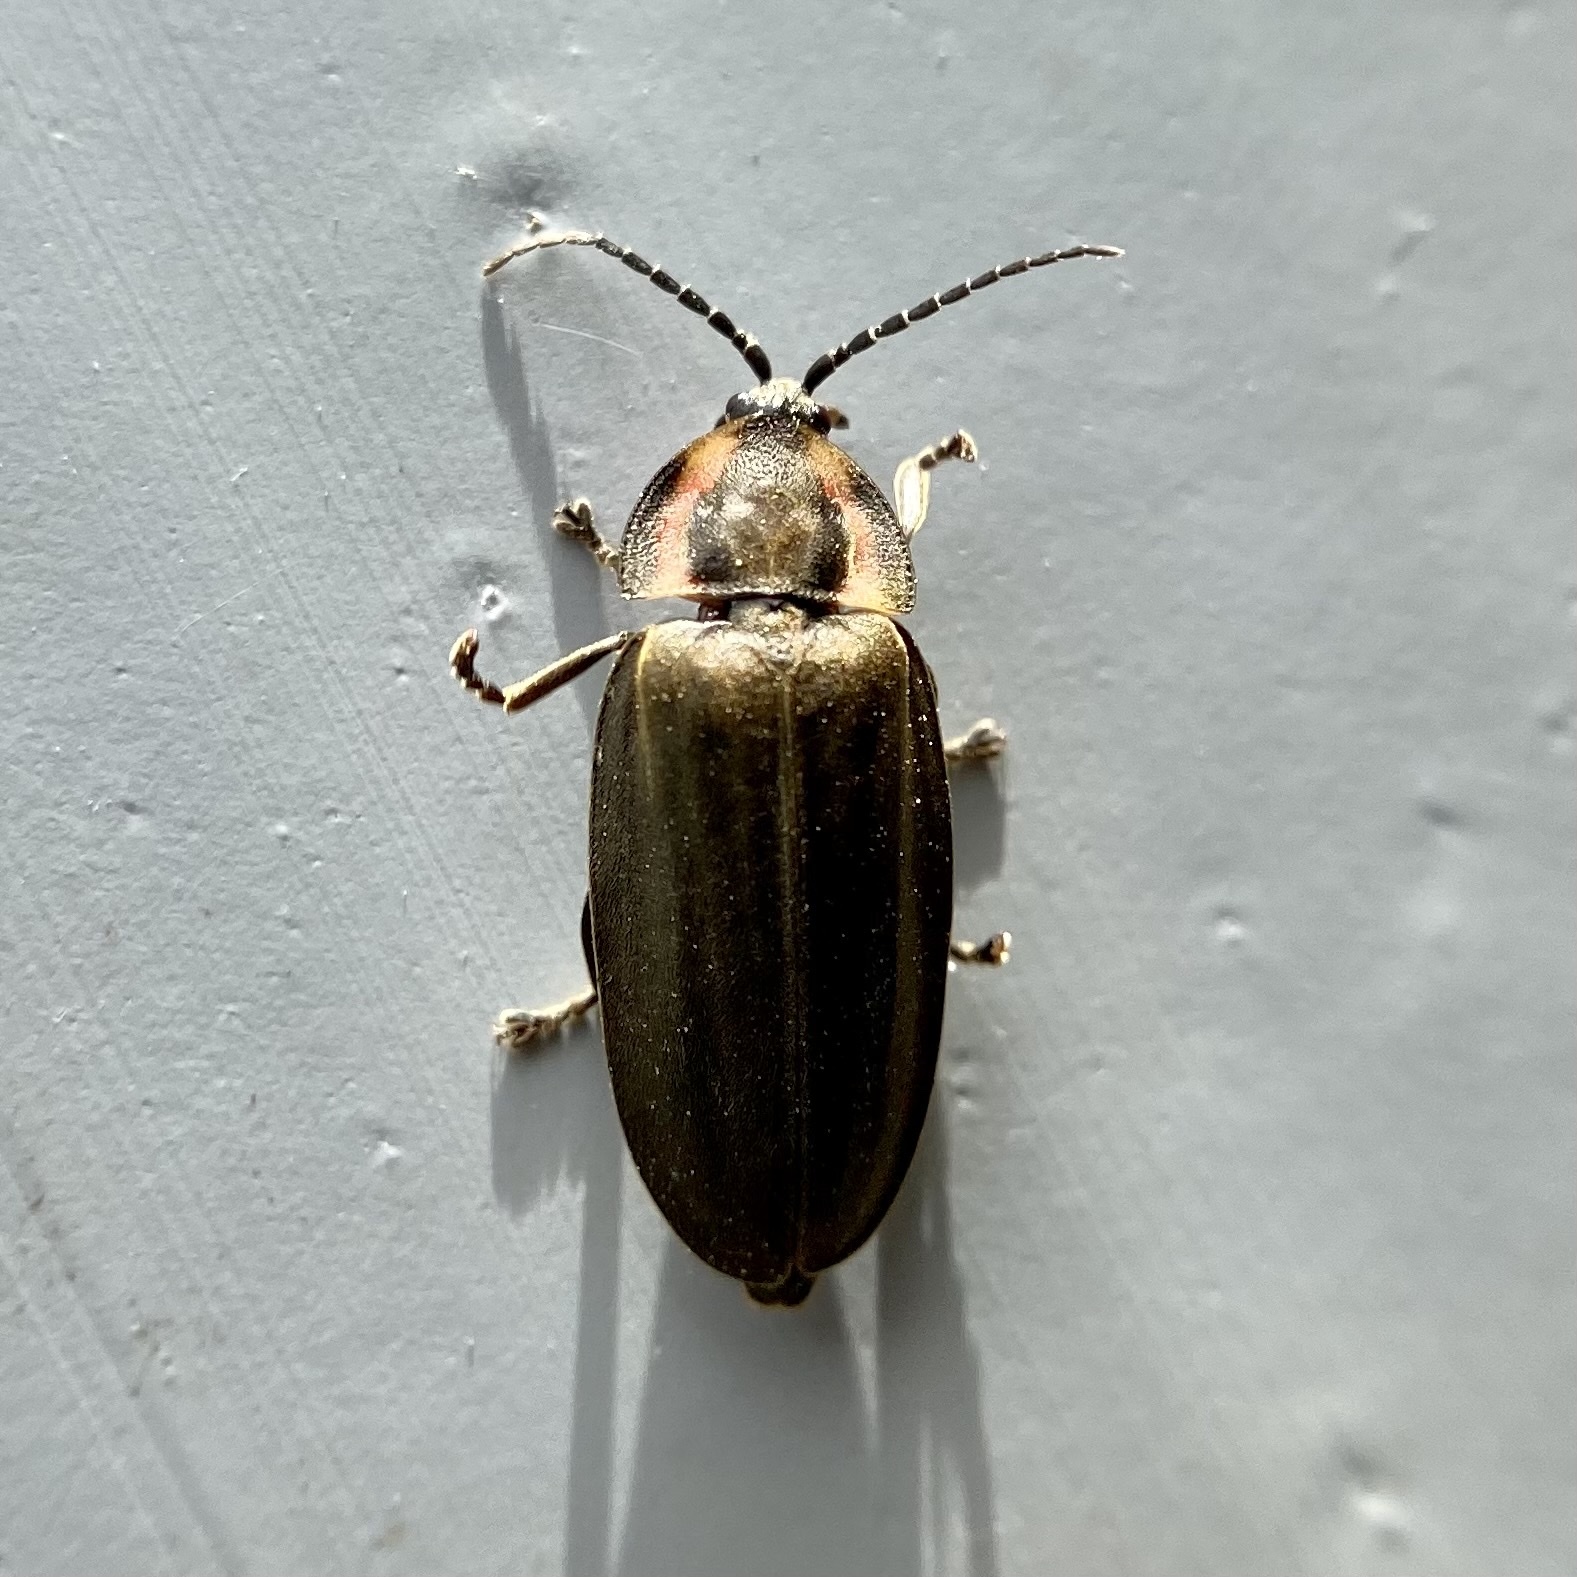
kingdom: Animalia
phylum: Arthropoda
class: Insecta
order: Coleoptera
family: Lampyridae
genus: Photinus
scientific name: Photinus corrusca
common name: Winter firefly
